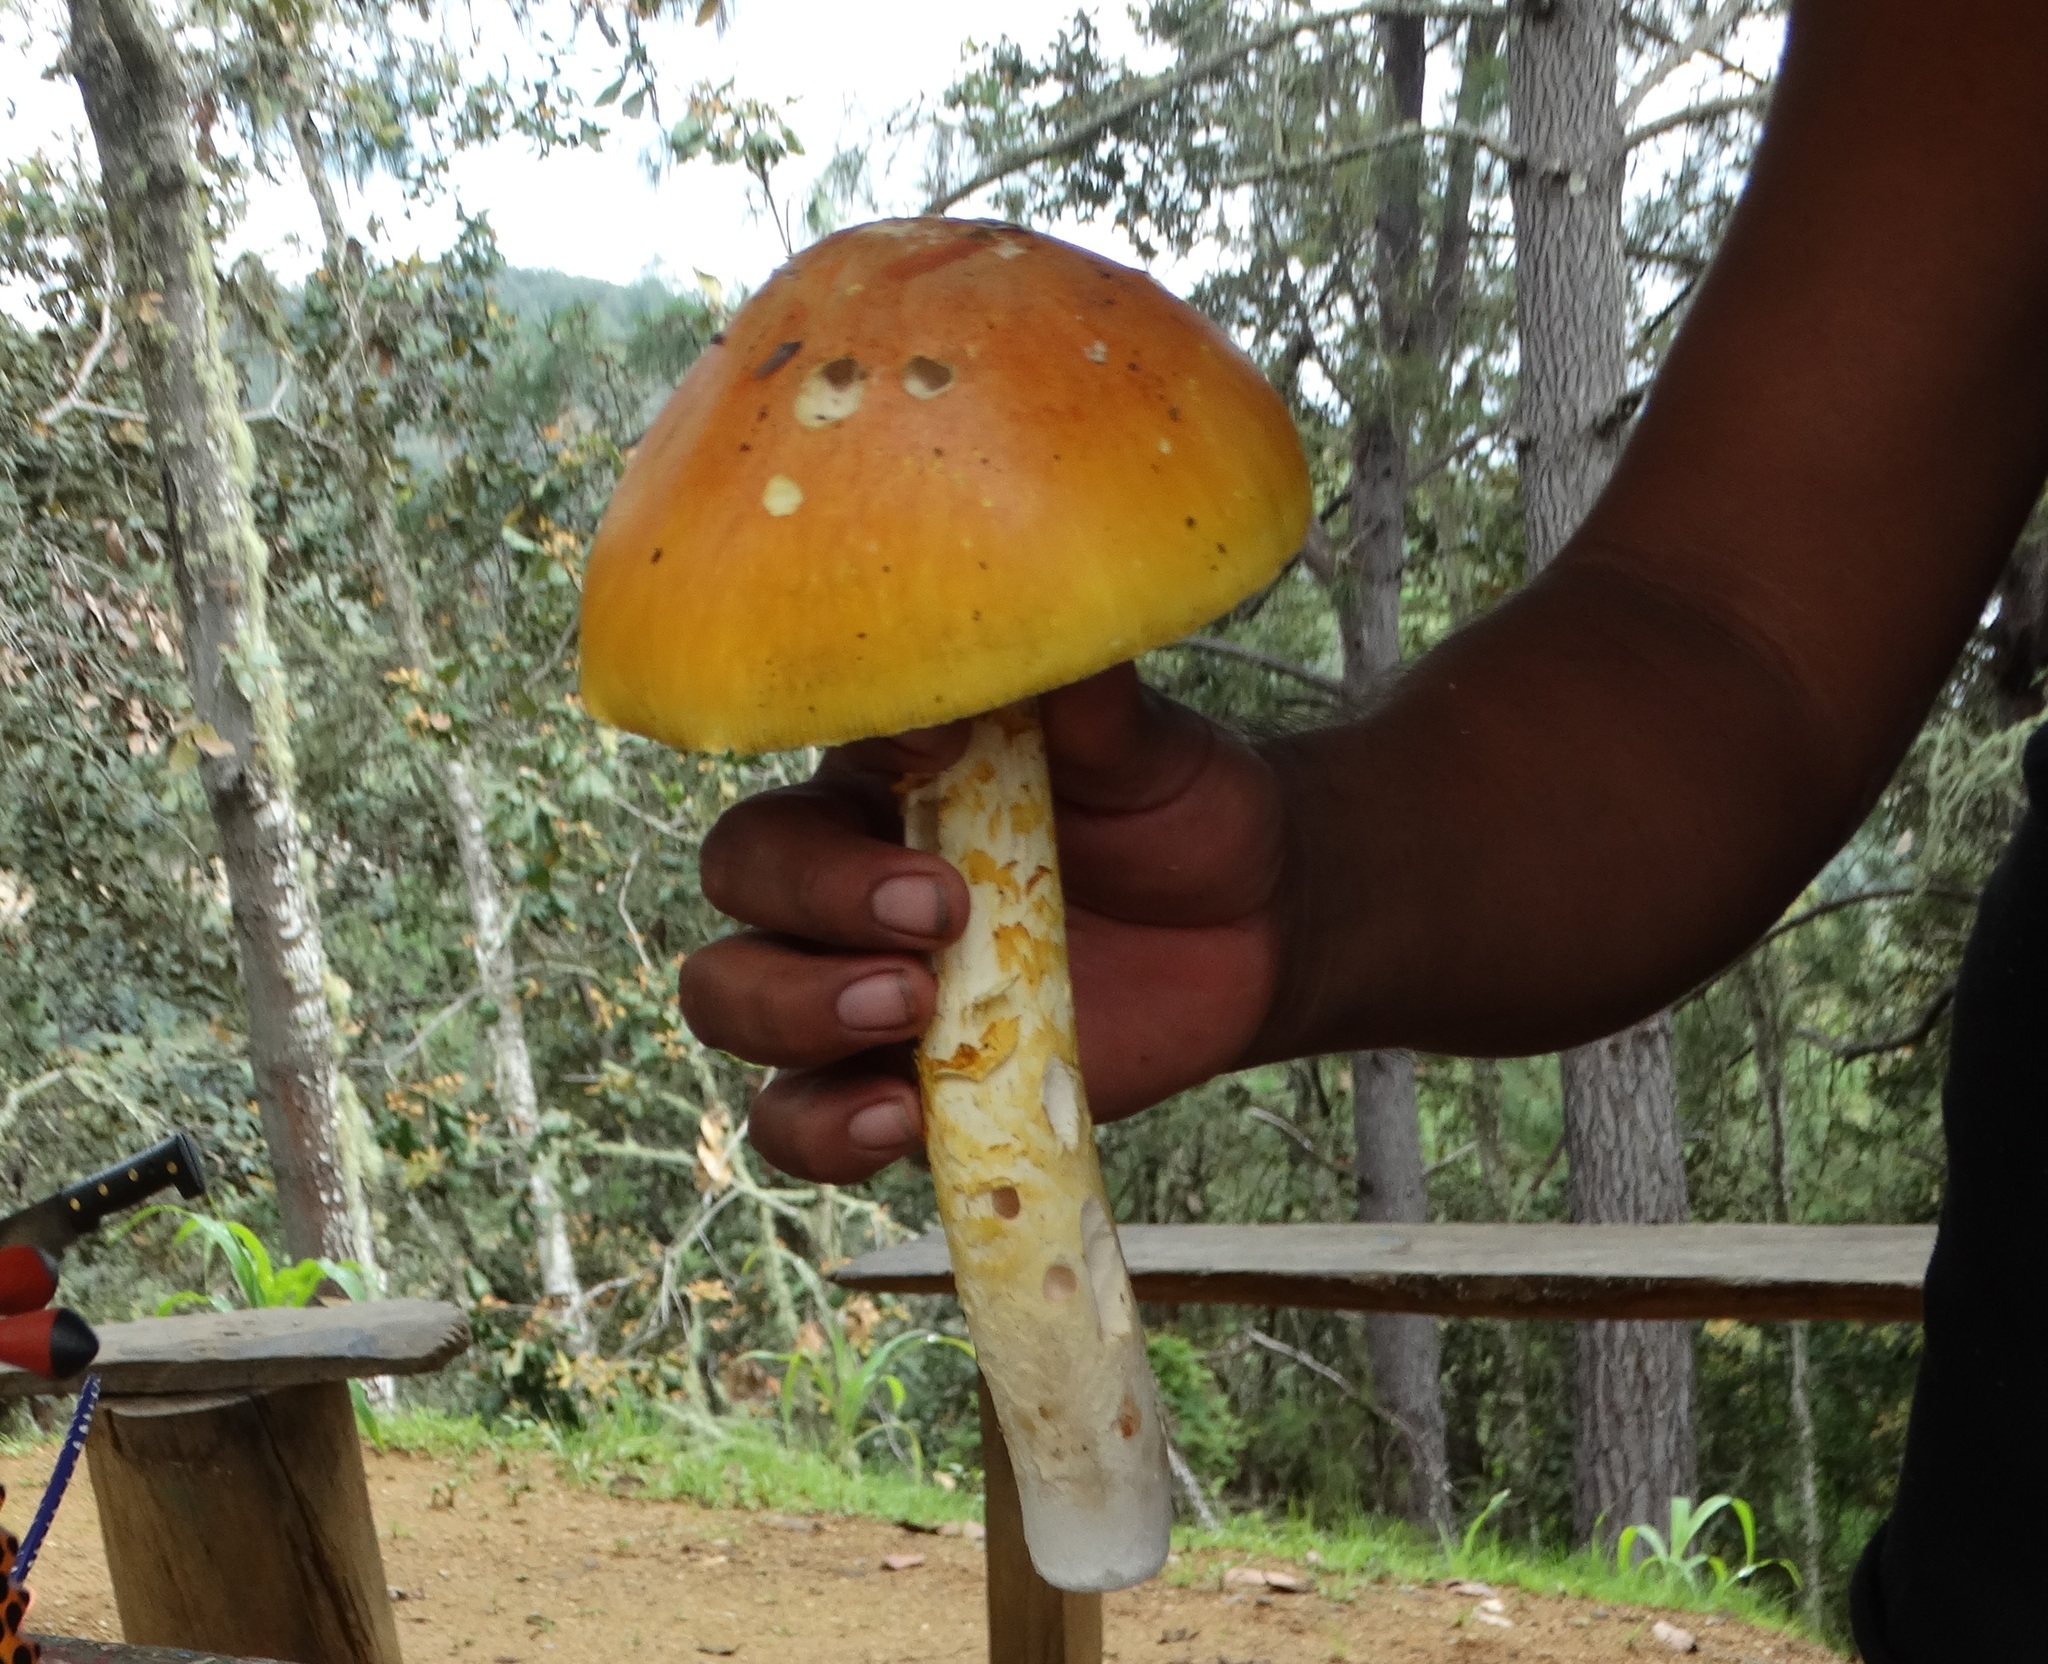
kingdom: Fungi
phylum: Basidiomycota
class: Agaricomycetes
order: Agaricales
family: Amanitaceae
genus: Amanita
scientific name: Amanita yema
